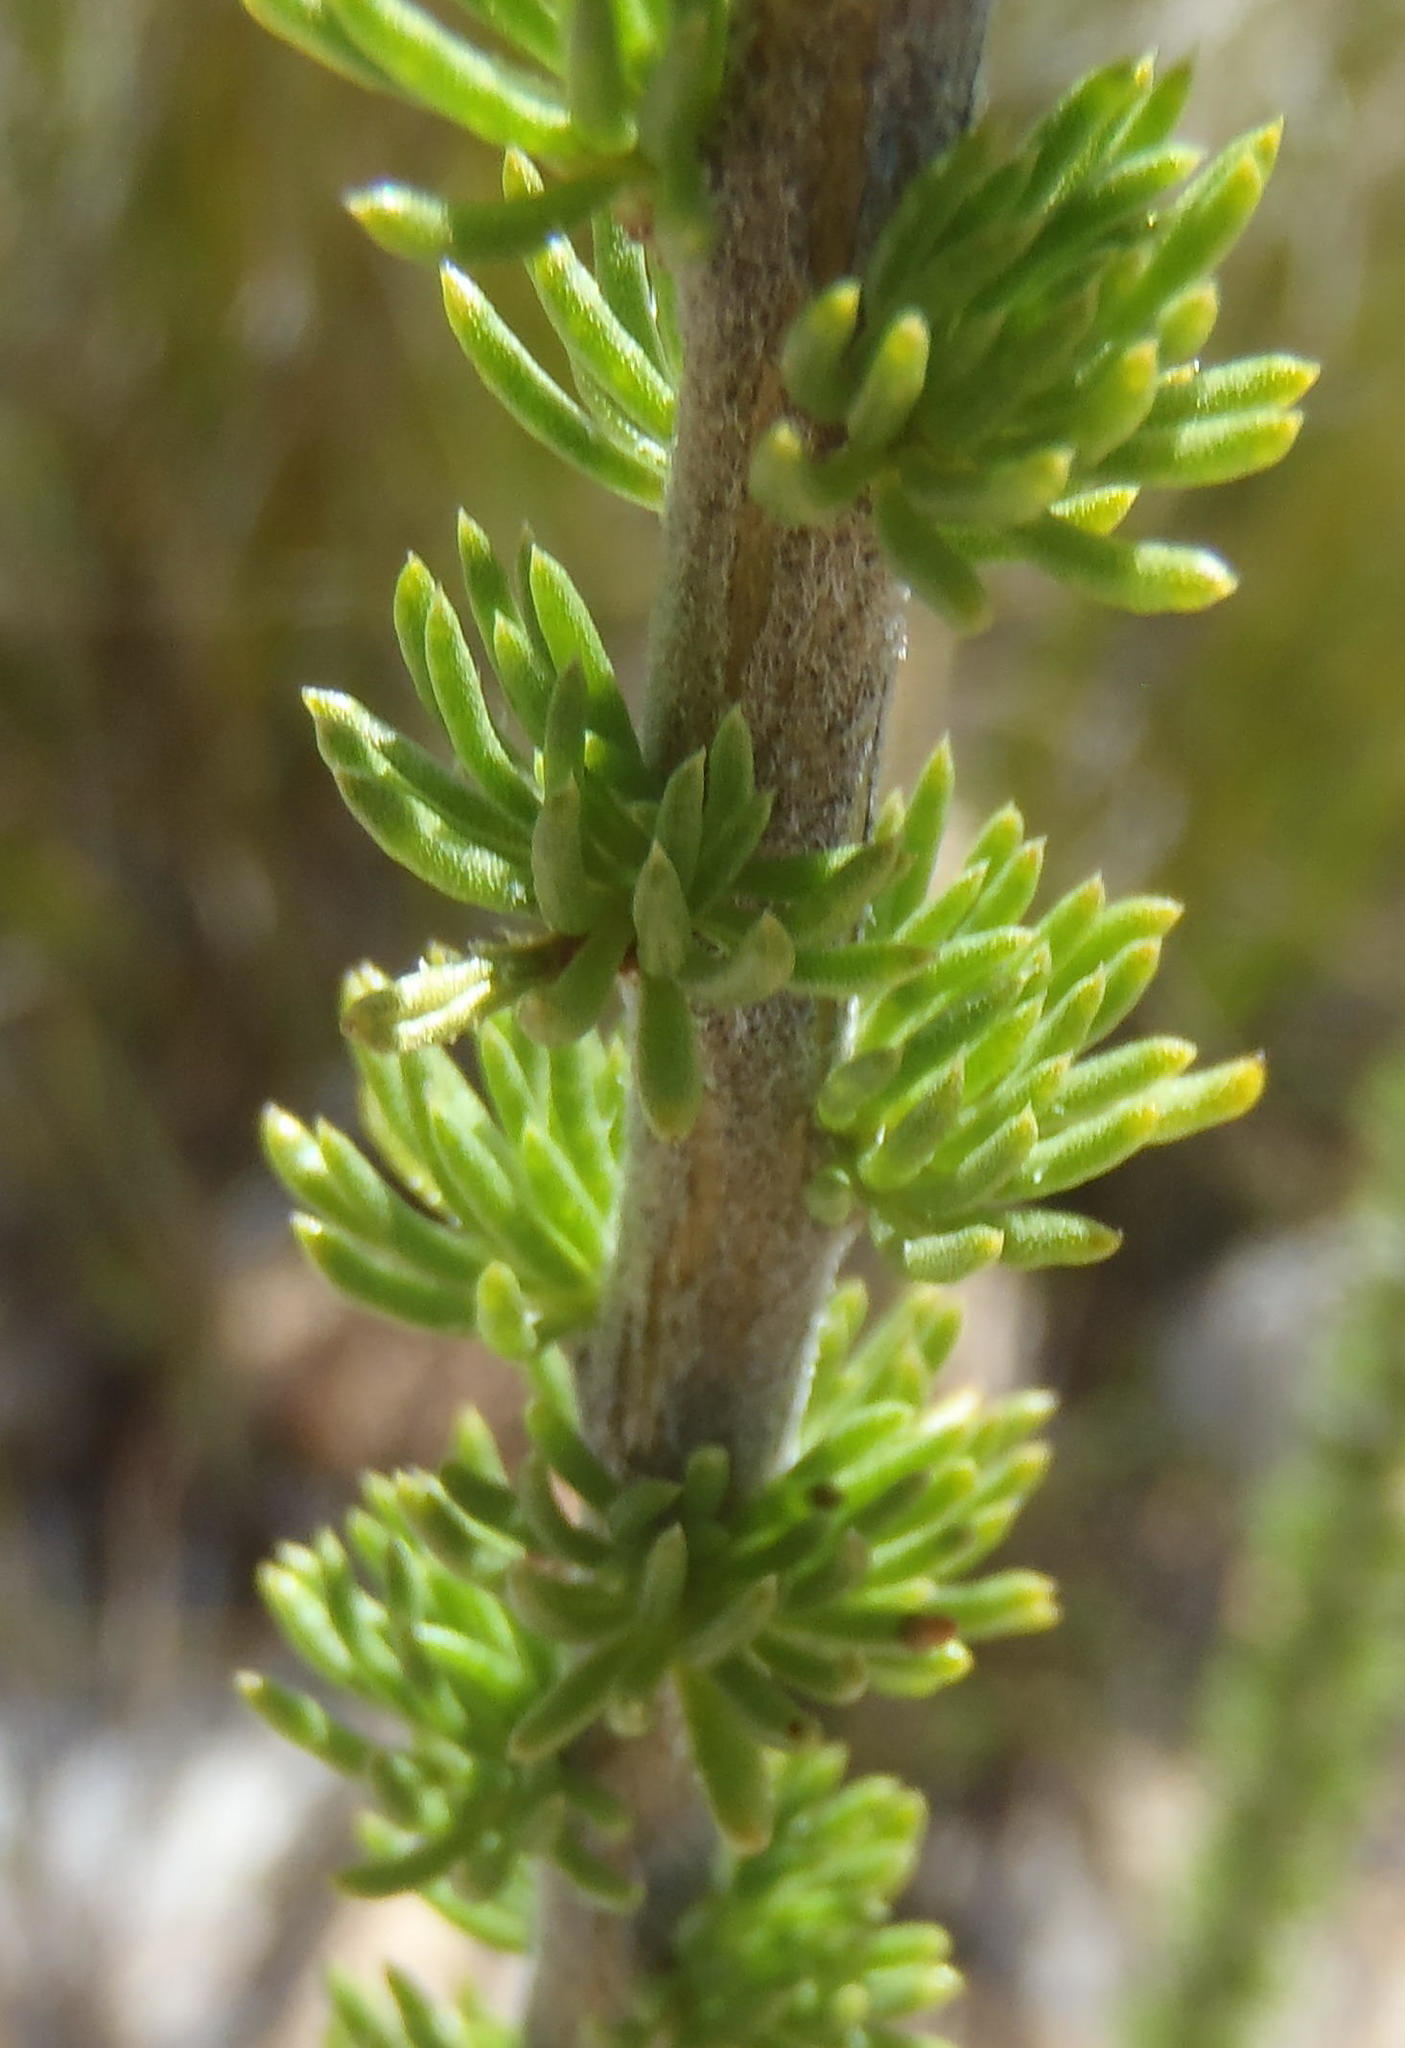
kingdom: Plantae
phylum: Tracheophyta
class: Magnoliopsida
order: Asterales
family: Asteraceae
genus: Pteronia
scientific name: Pteronia camphorata
